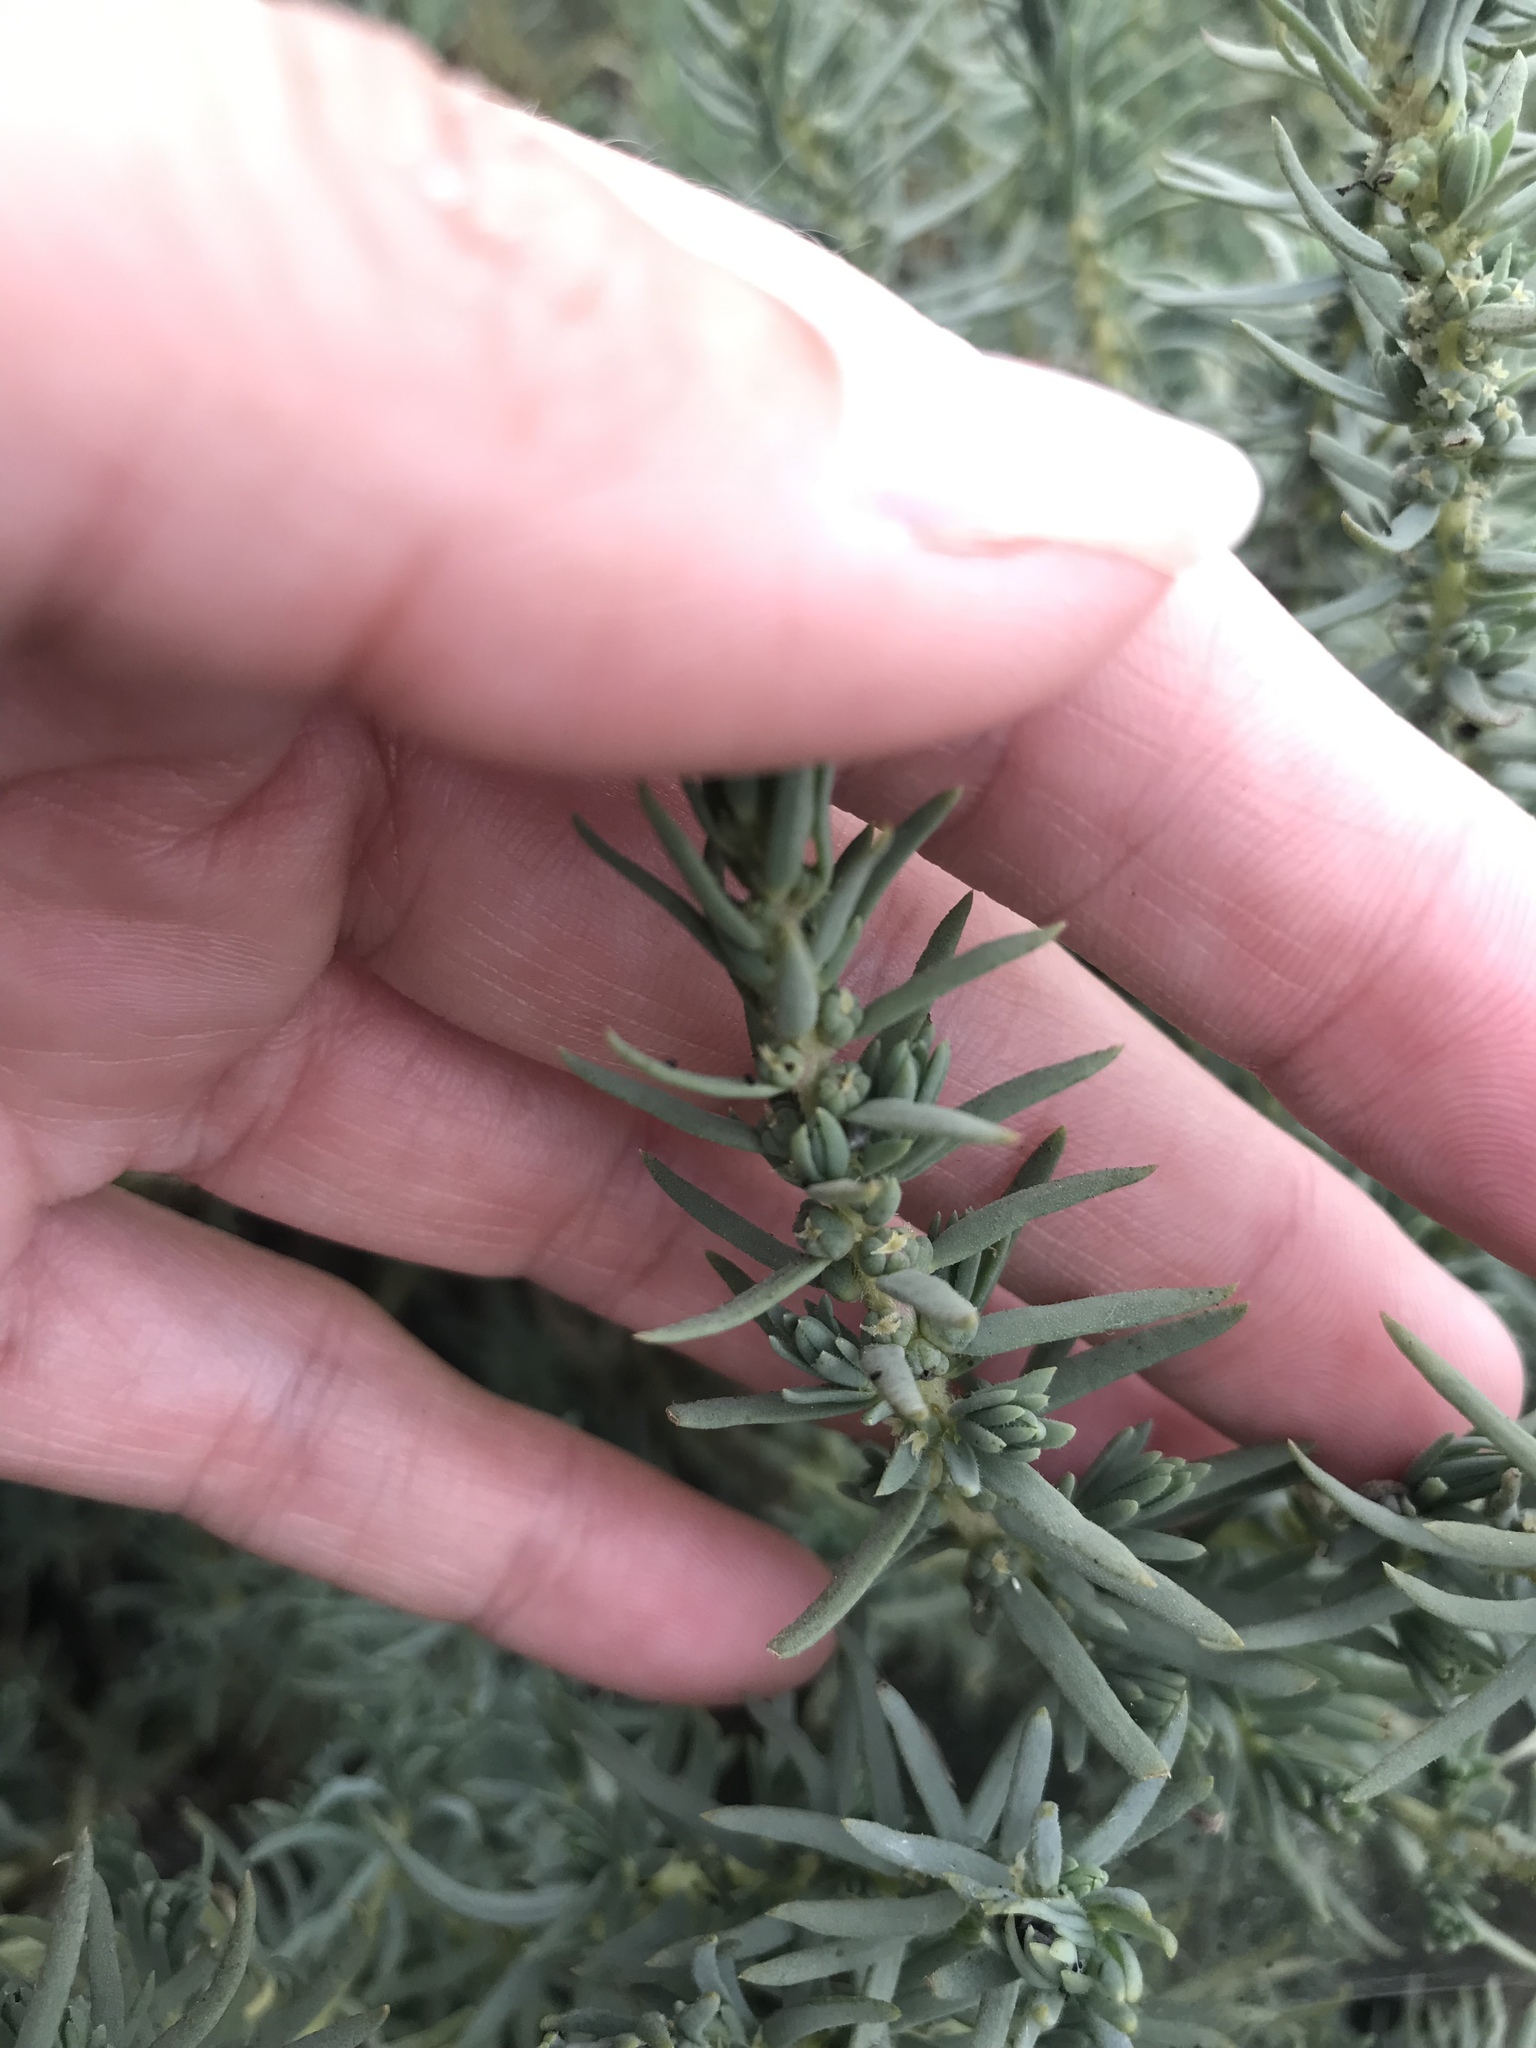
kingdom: Plantae
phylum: Tracheophyta
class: Magnoliopsida
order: Caryophyllales
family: Amaranthaceae
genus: Suaeda
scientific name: Suaeda taxifolia
